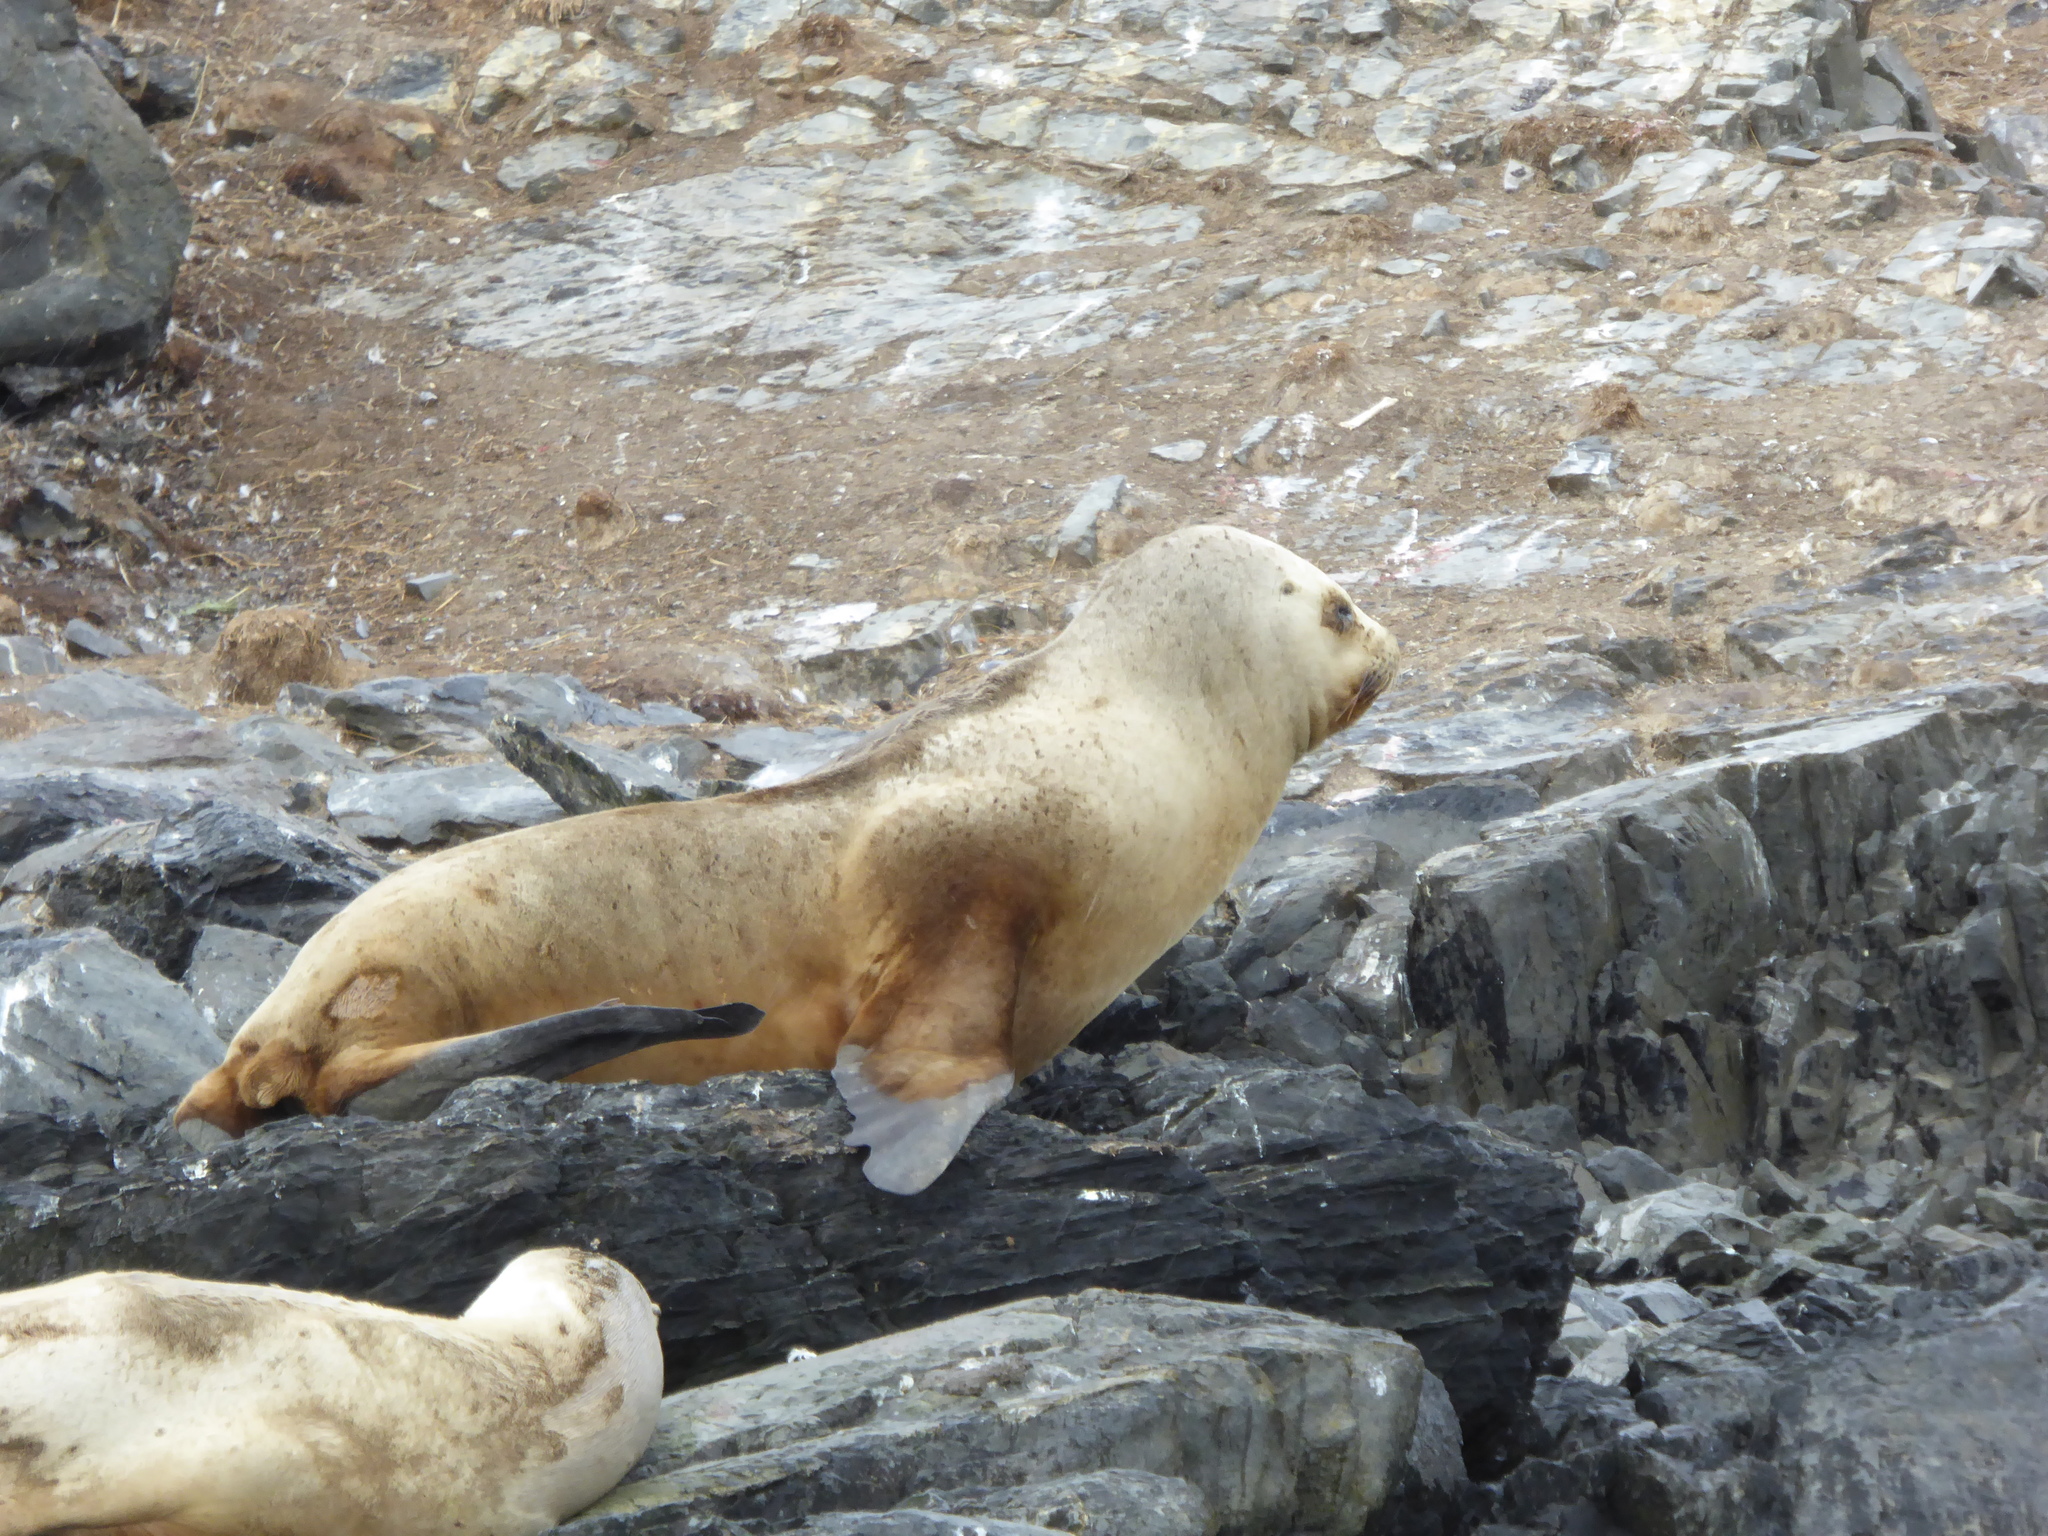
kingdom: Animalia
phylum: Chordata
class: Mammalia
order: Carnivora
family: Otariidae
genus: Otaria
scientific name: Otaria byronia
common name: South american sea lion
